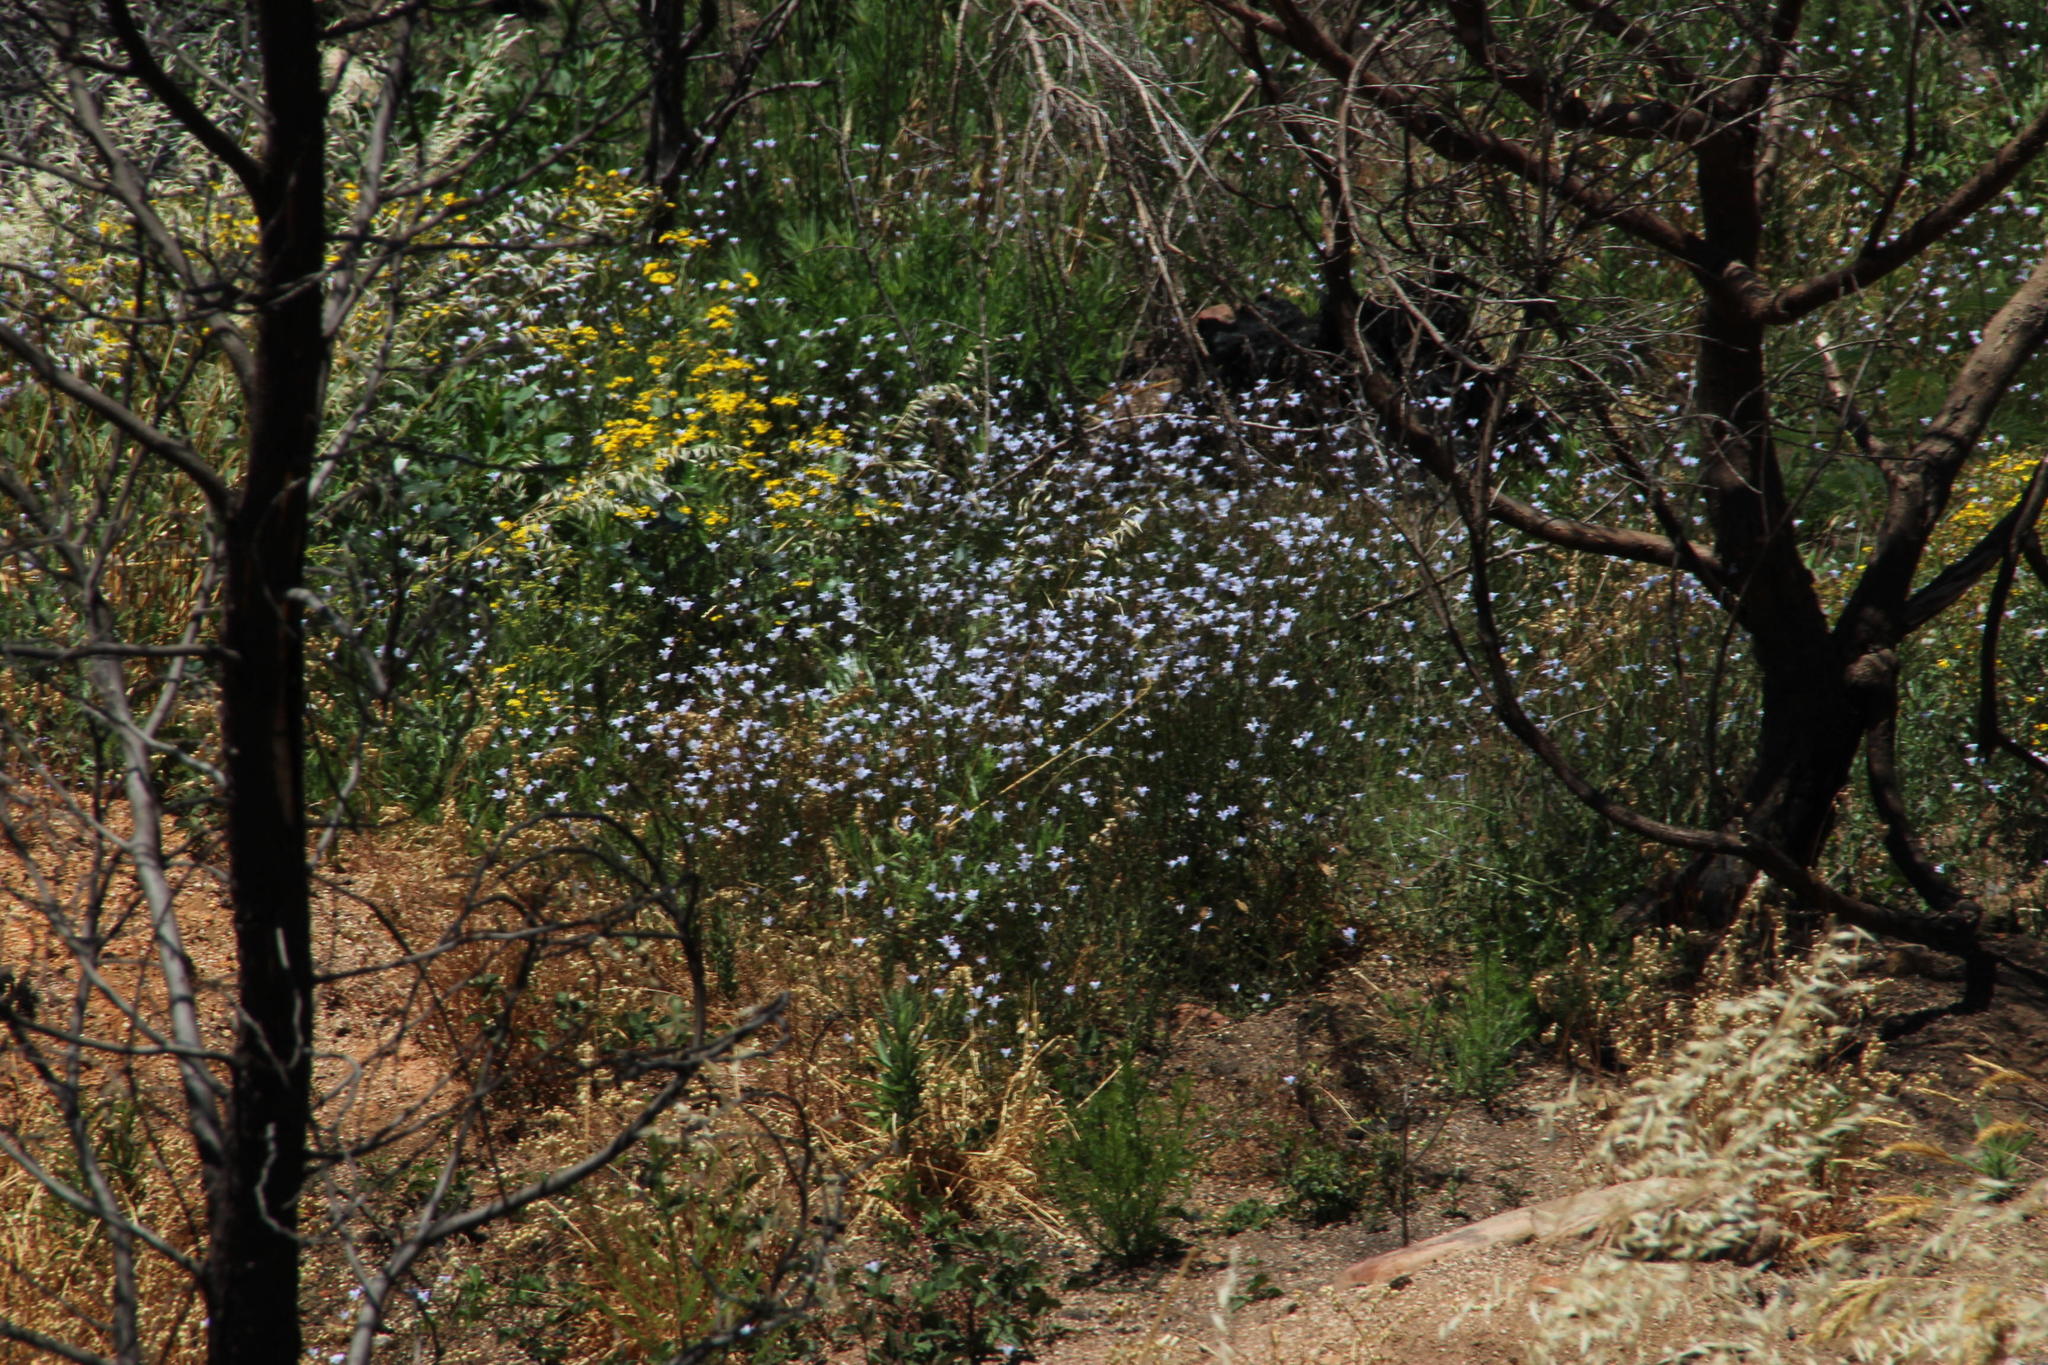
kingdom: Plantae
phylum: Tracheophyta
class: Magnoliopsida
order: Asterales
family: Campanulaceae
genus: Wahlenbergia
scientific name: Wahlenbergia obovata
